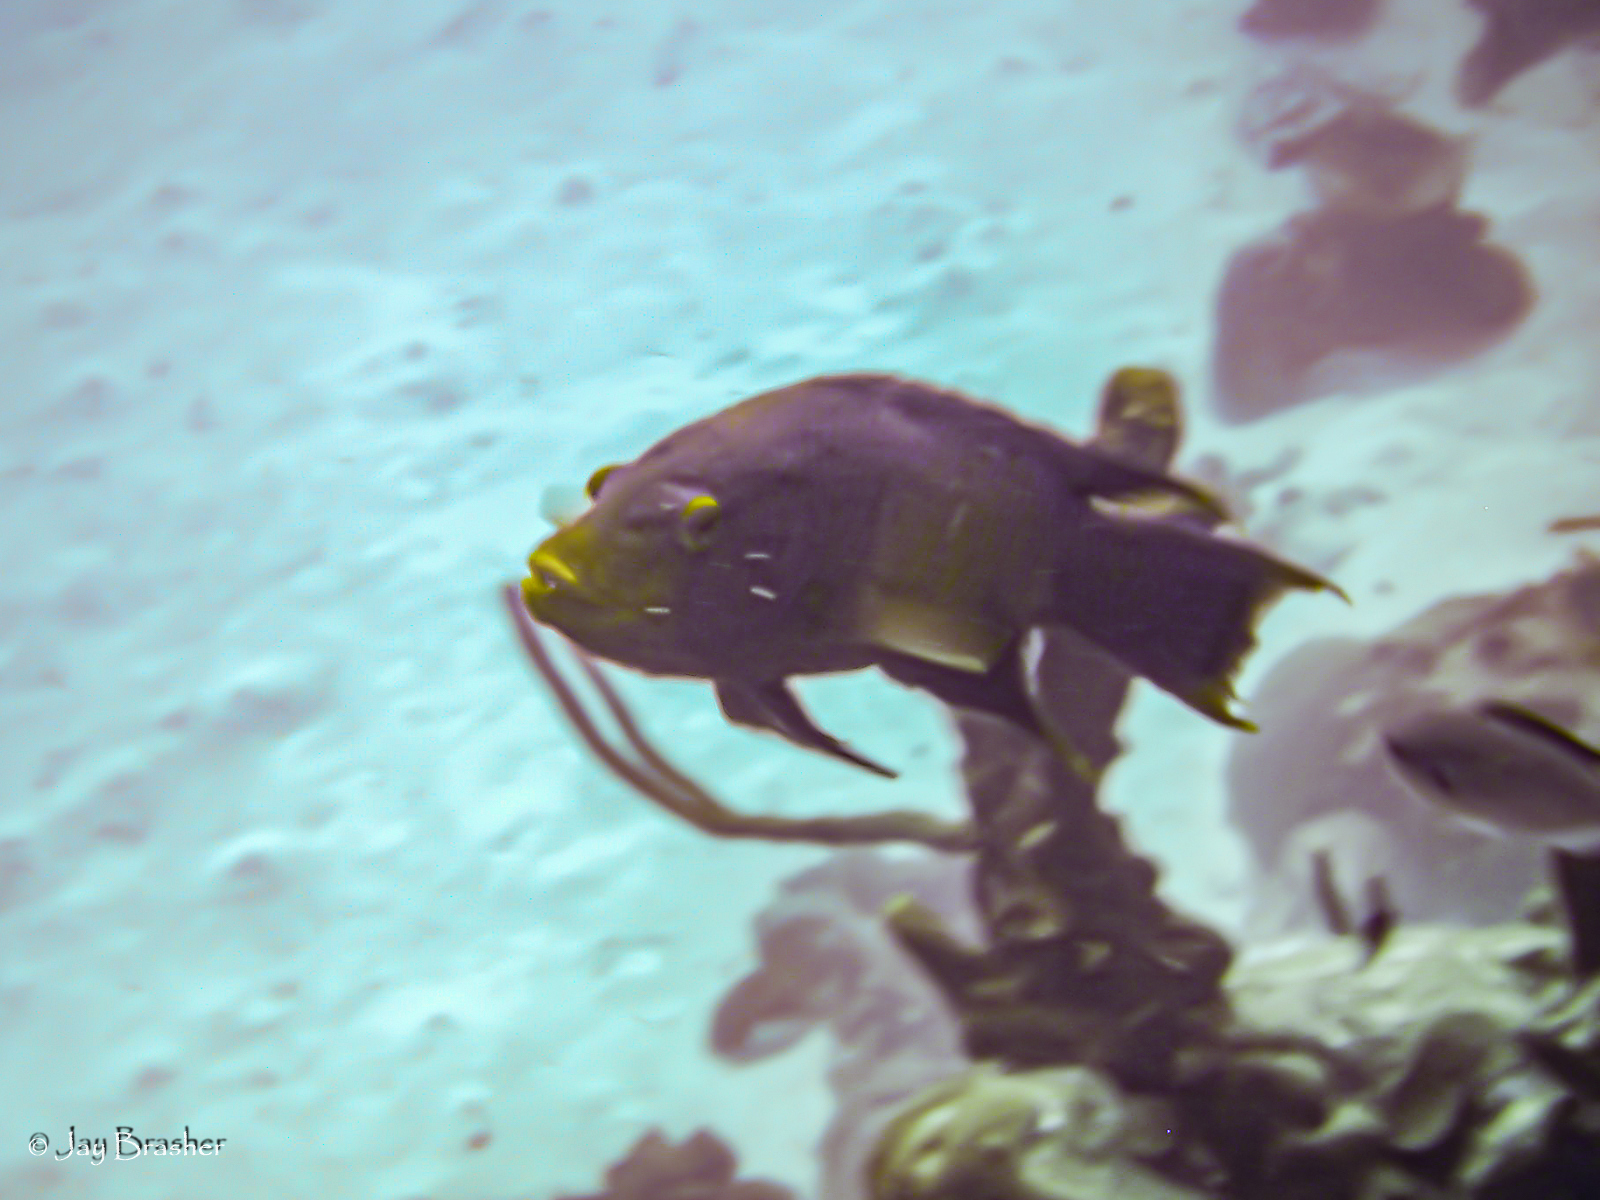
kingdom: Animalia
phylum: Chordata
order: Perciformes
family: Labridae
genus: Bodianus
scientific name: Bodianus rufus
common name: Spanish hogfish
